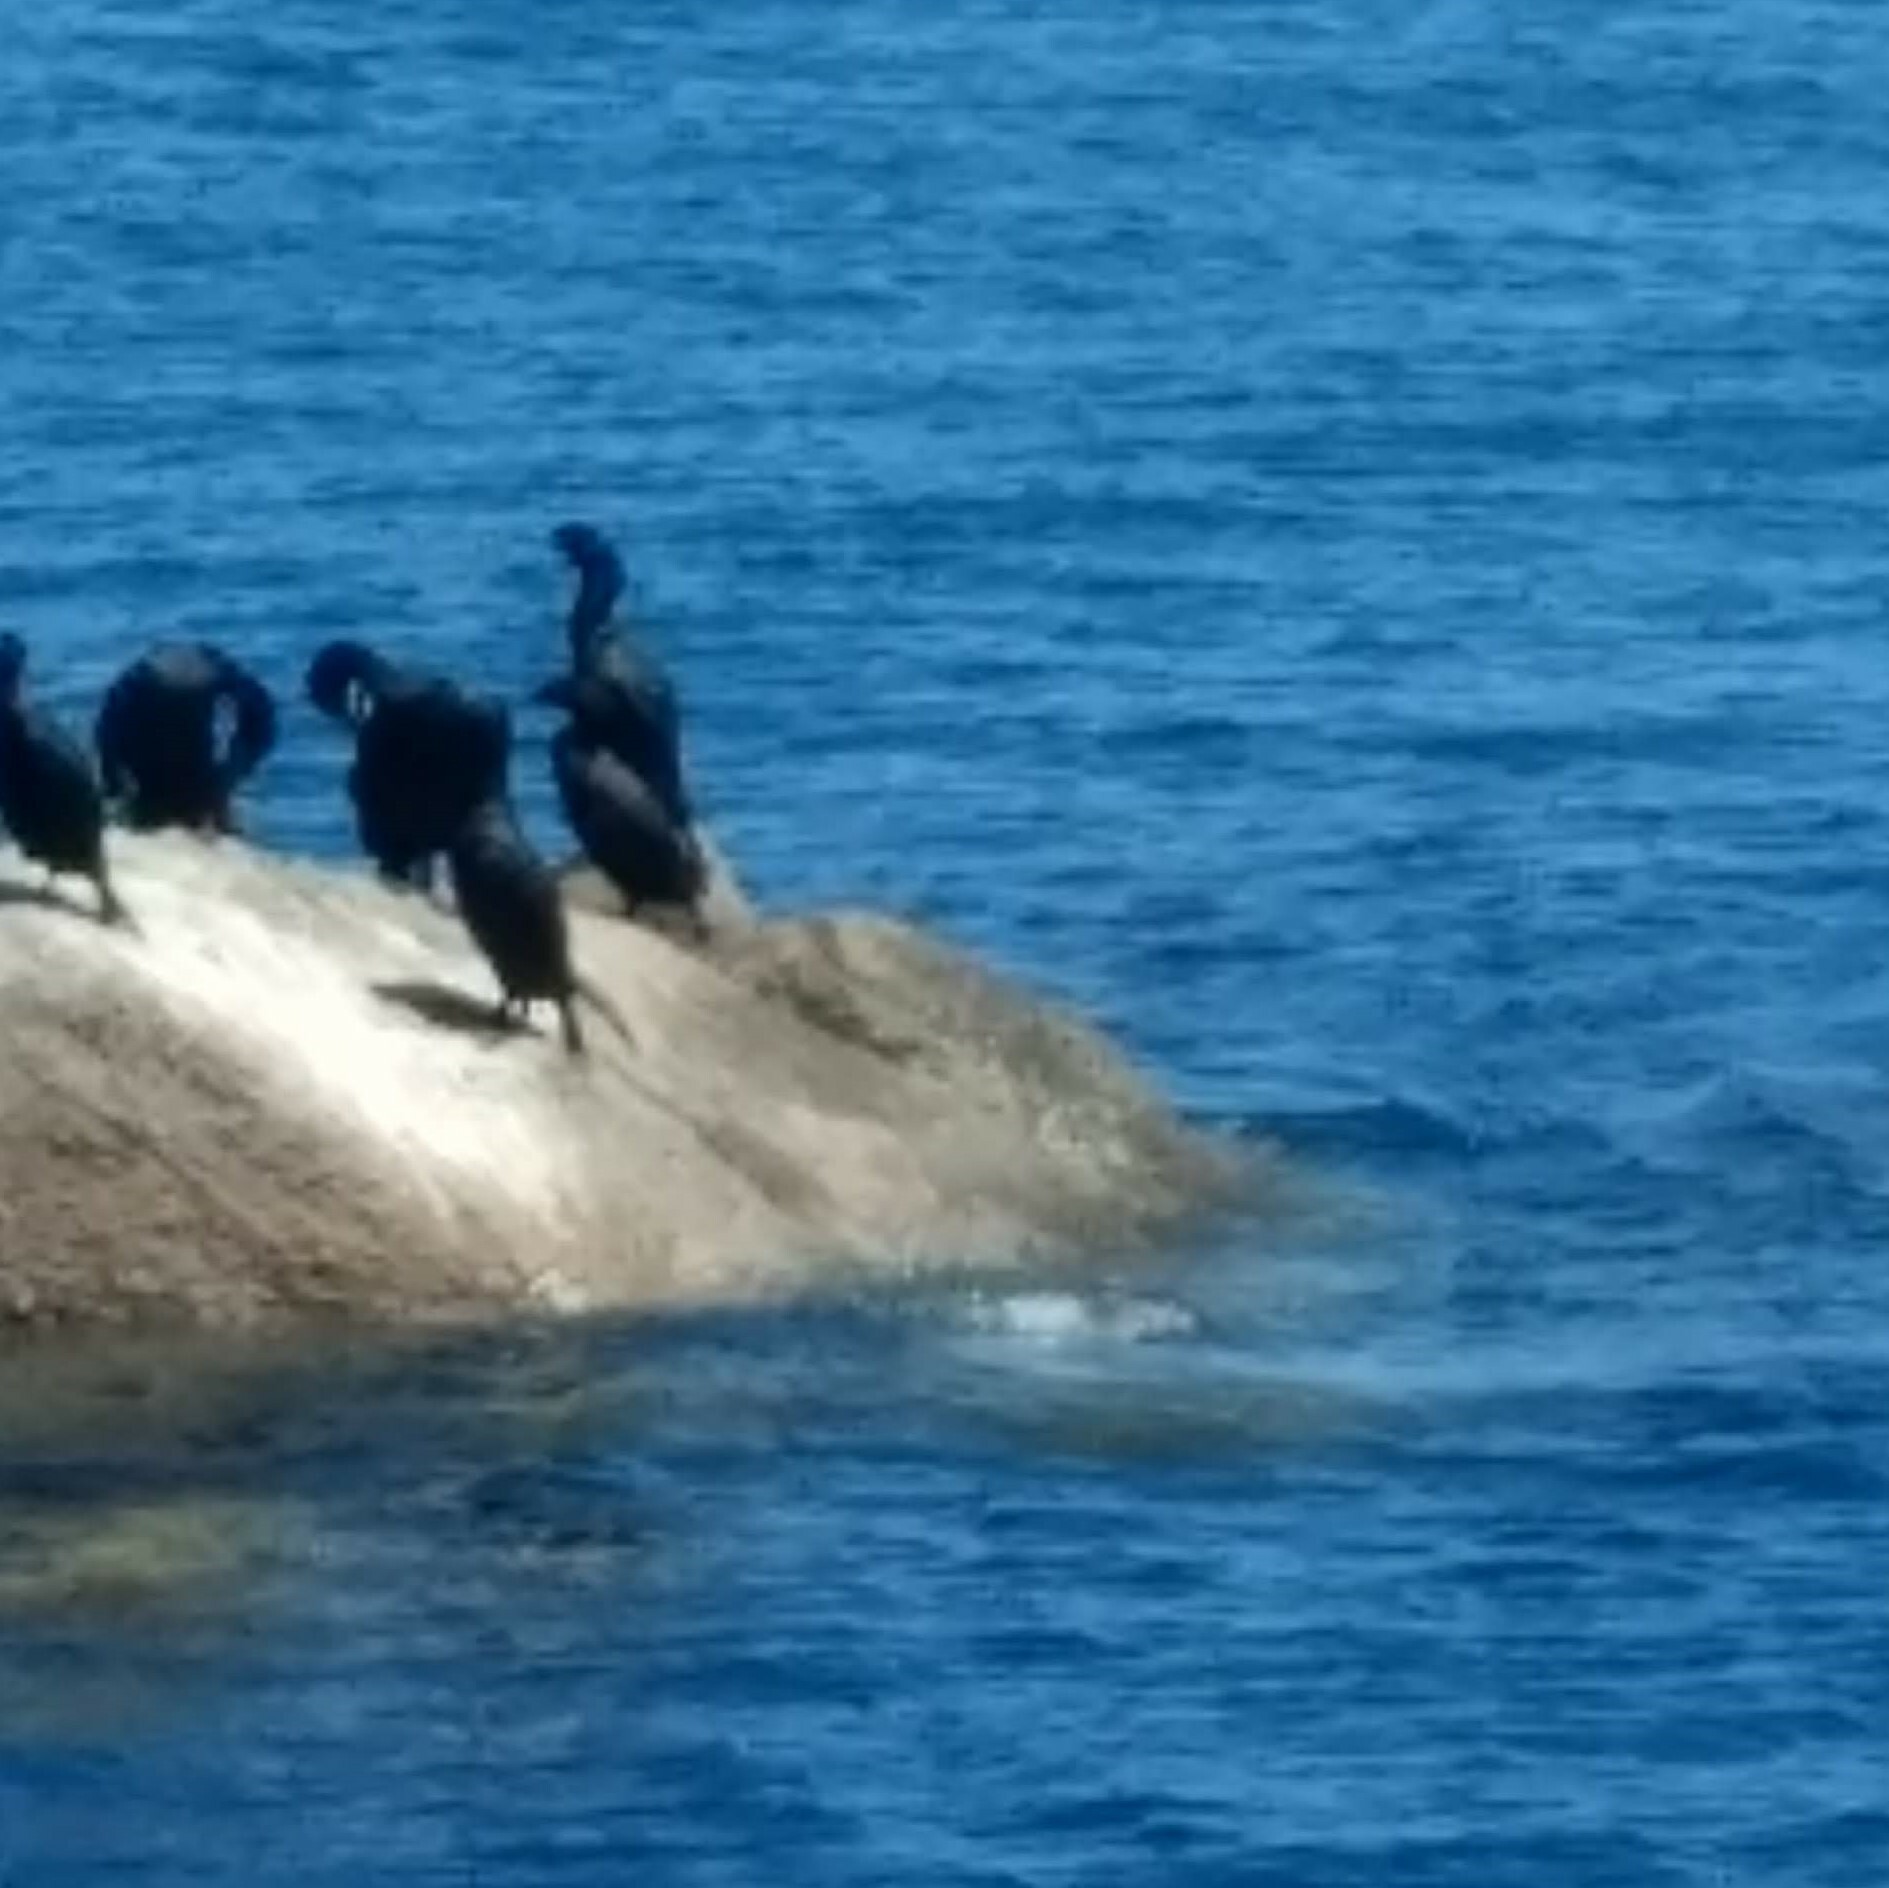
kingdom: Animalia
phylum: Chordata
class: Aves
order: Suliformes
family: Phalacrocoracidae
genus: Urile
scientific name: Urile
